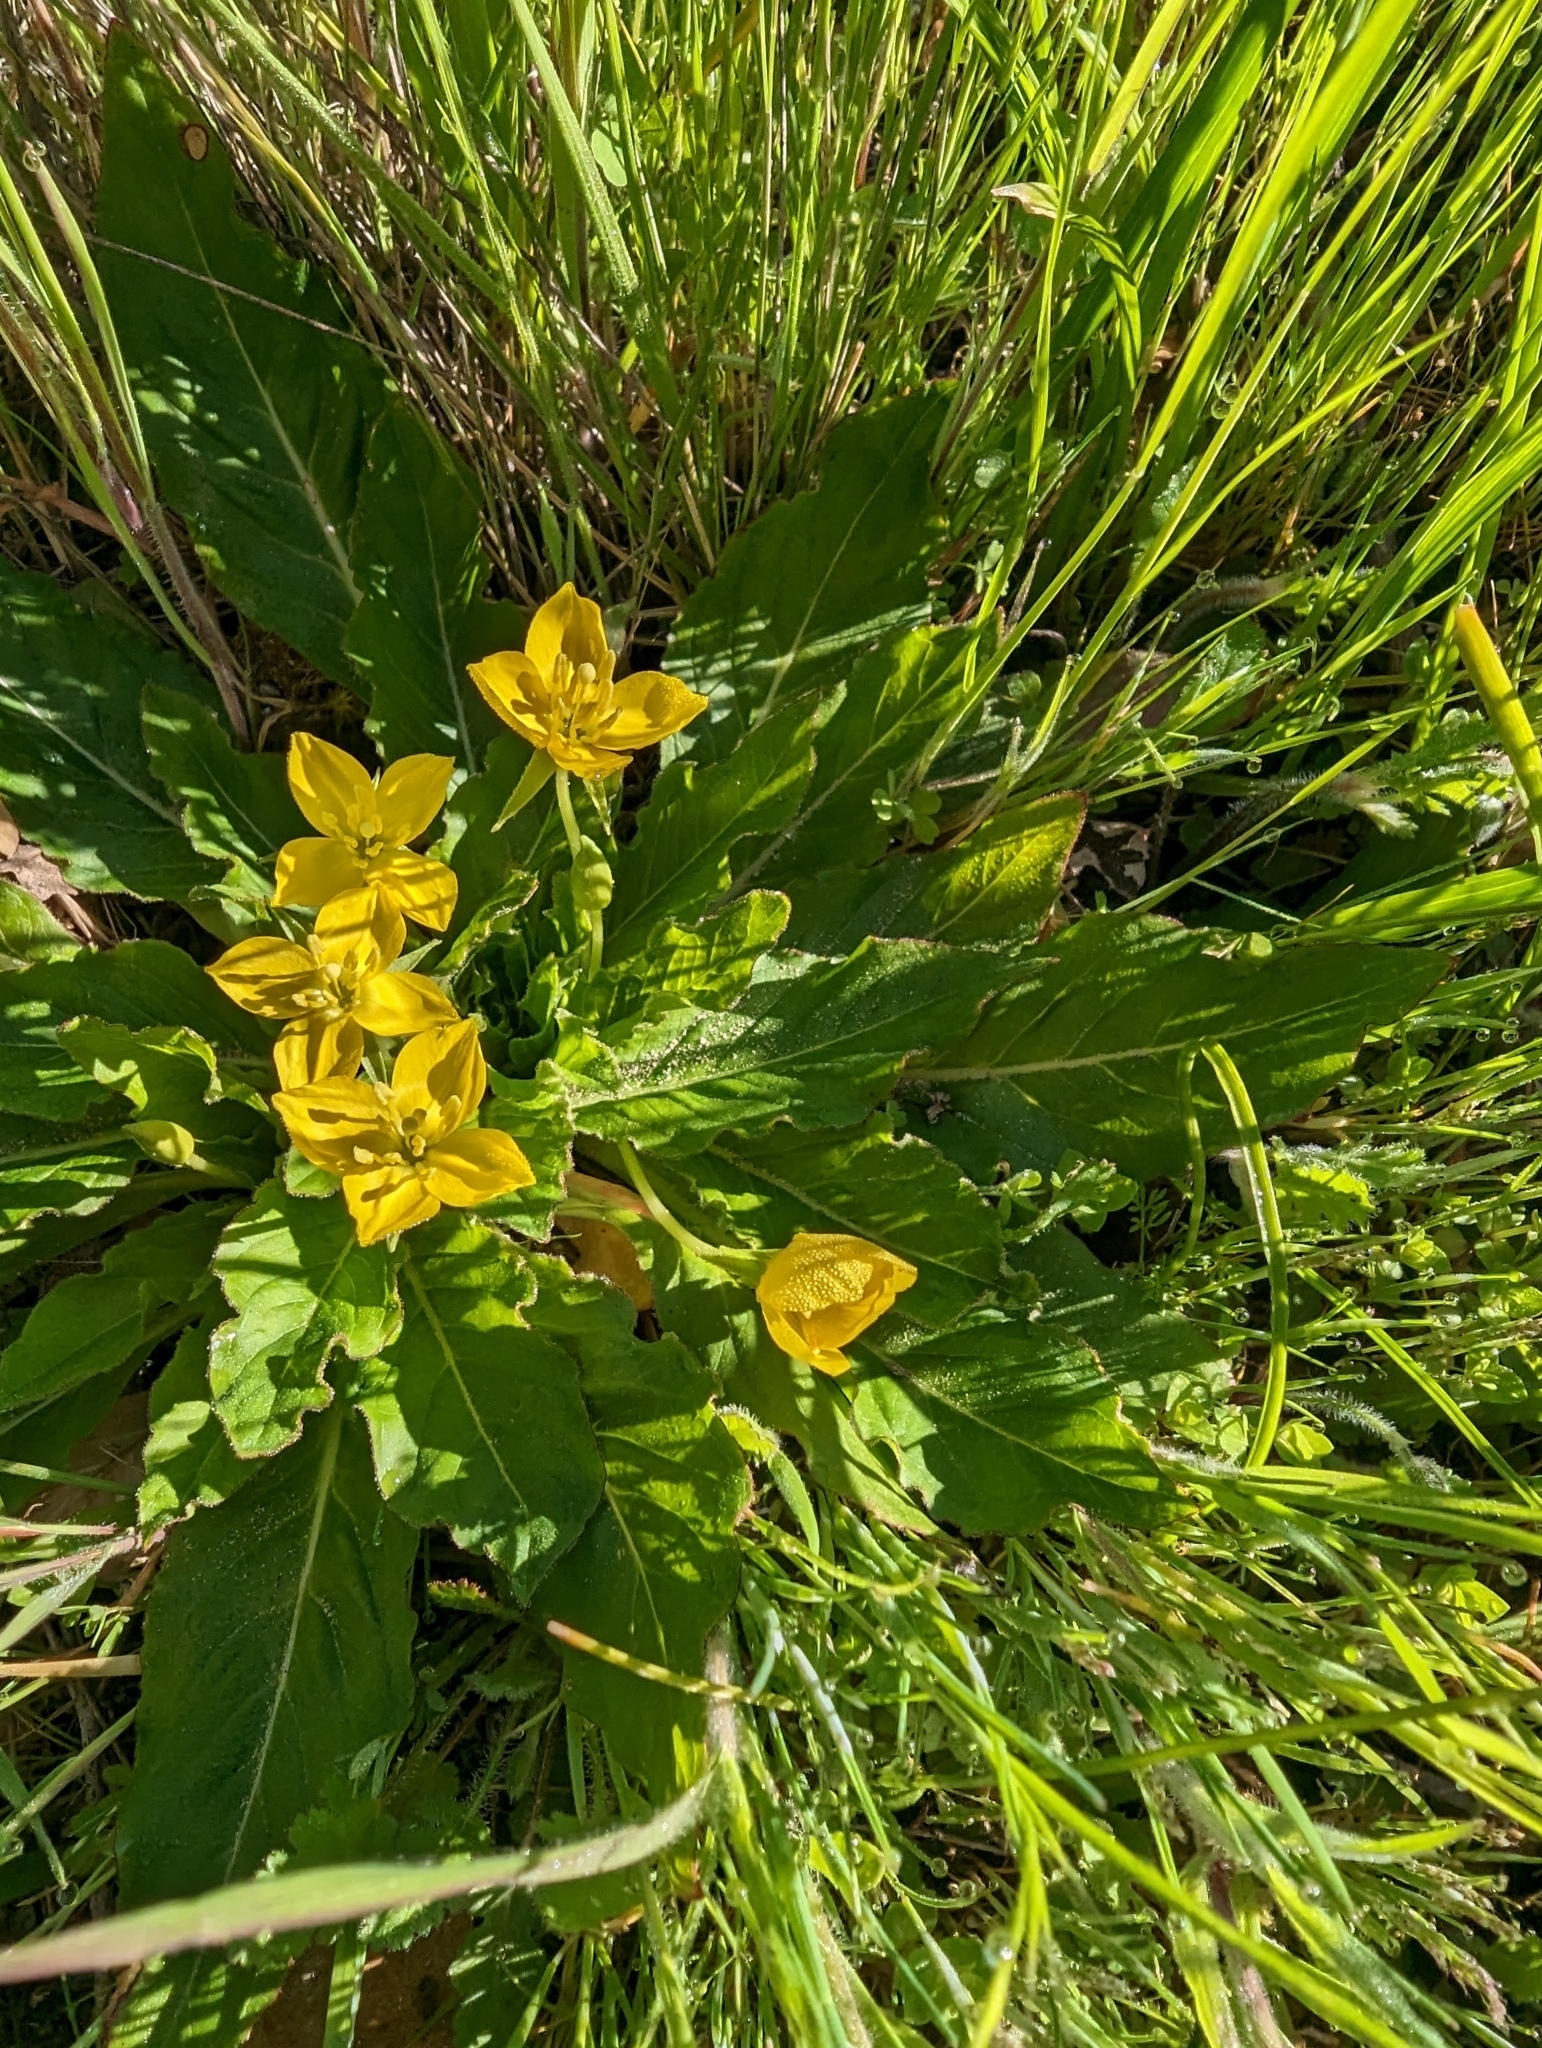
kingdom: Plantae
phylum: Tracheophyta
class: Magnoliopsida
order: Myrtales
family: Onagraceae
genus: Taraxia
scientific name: Taraxia ovata
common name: Goldeneggs
